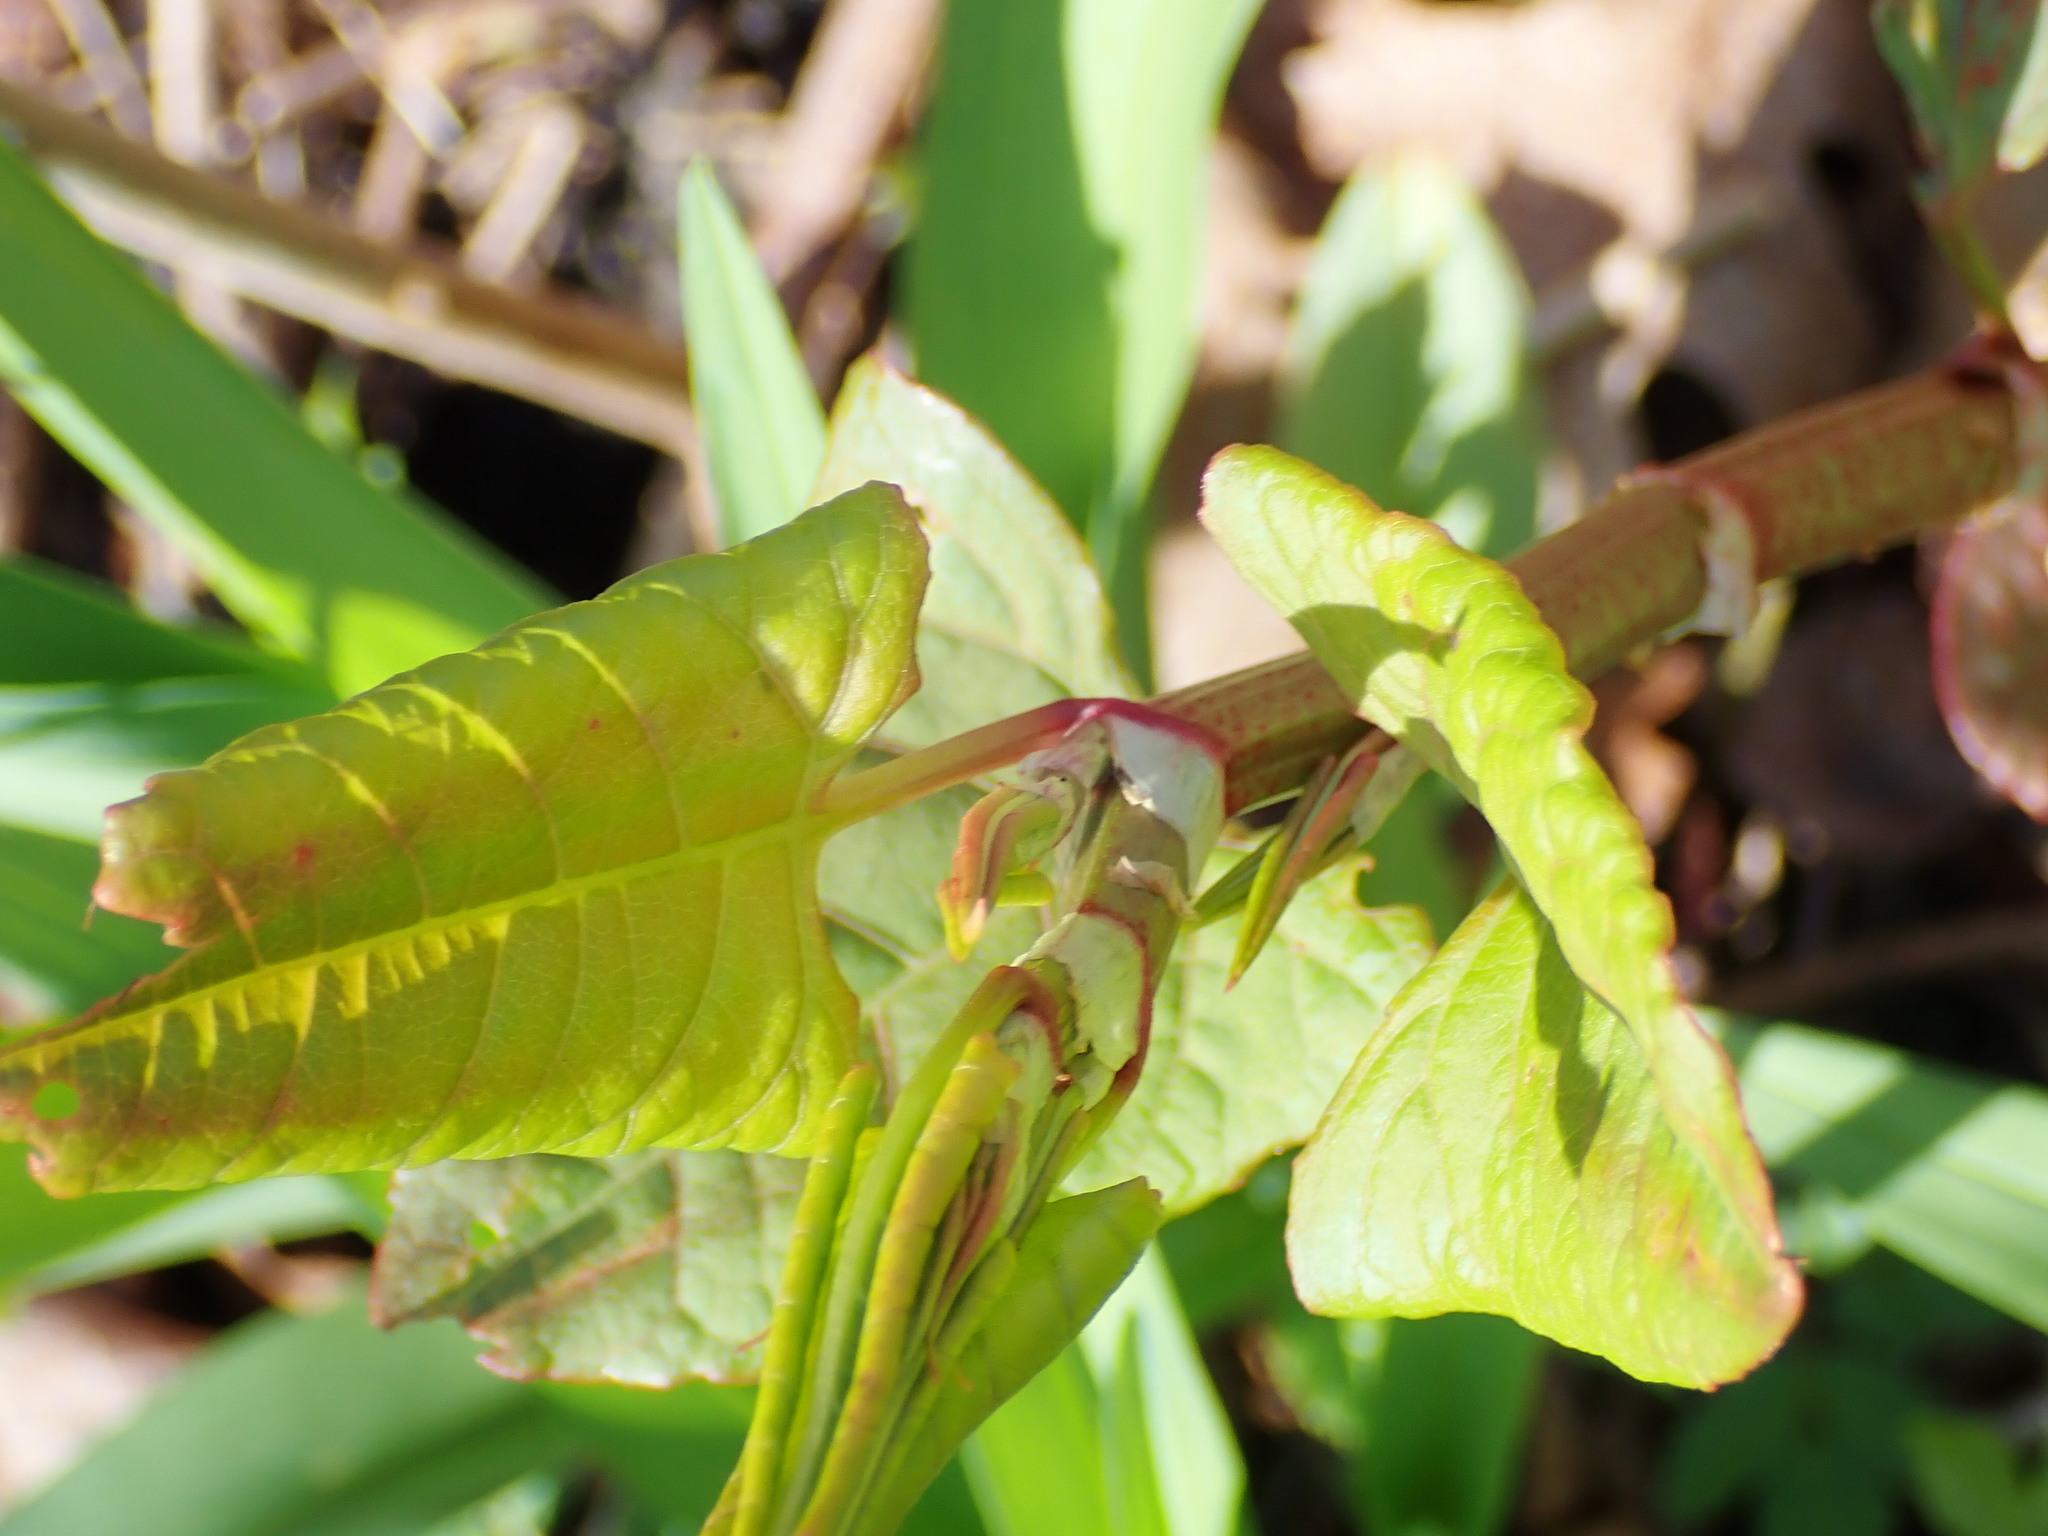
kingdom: Plantae
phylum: Tracheophyta
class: Magnoliopsida
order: Caryophyllales
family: Polygonaceae
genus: Reynoutria
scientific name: Reynoutria japonica
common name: Japanese knotweed
